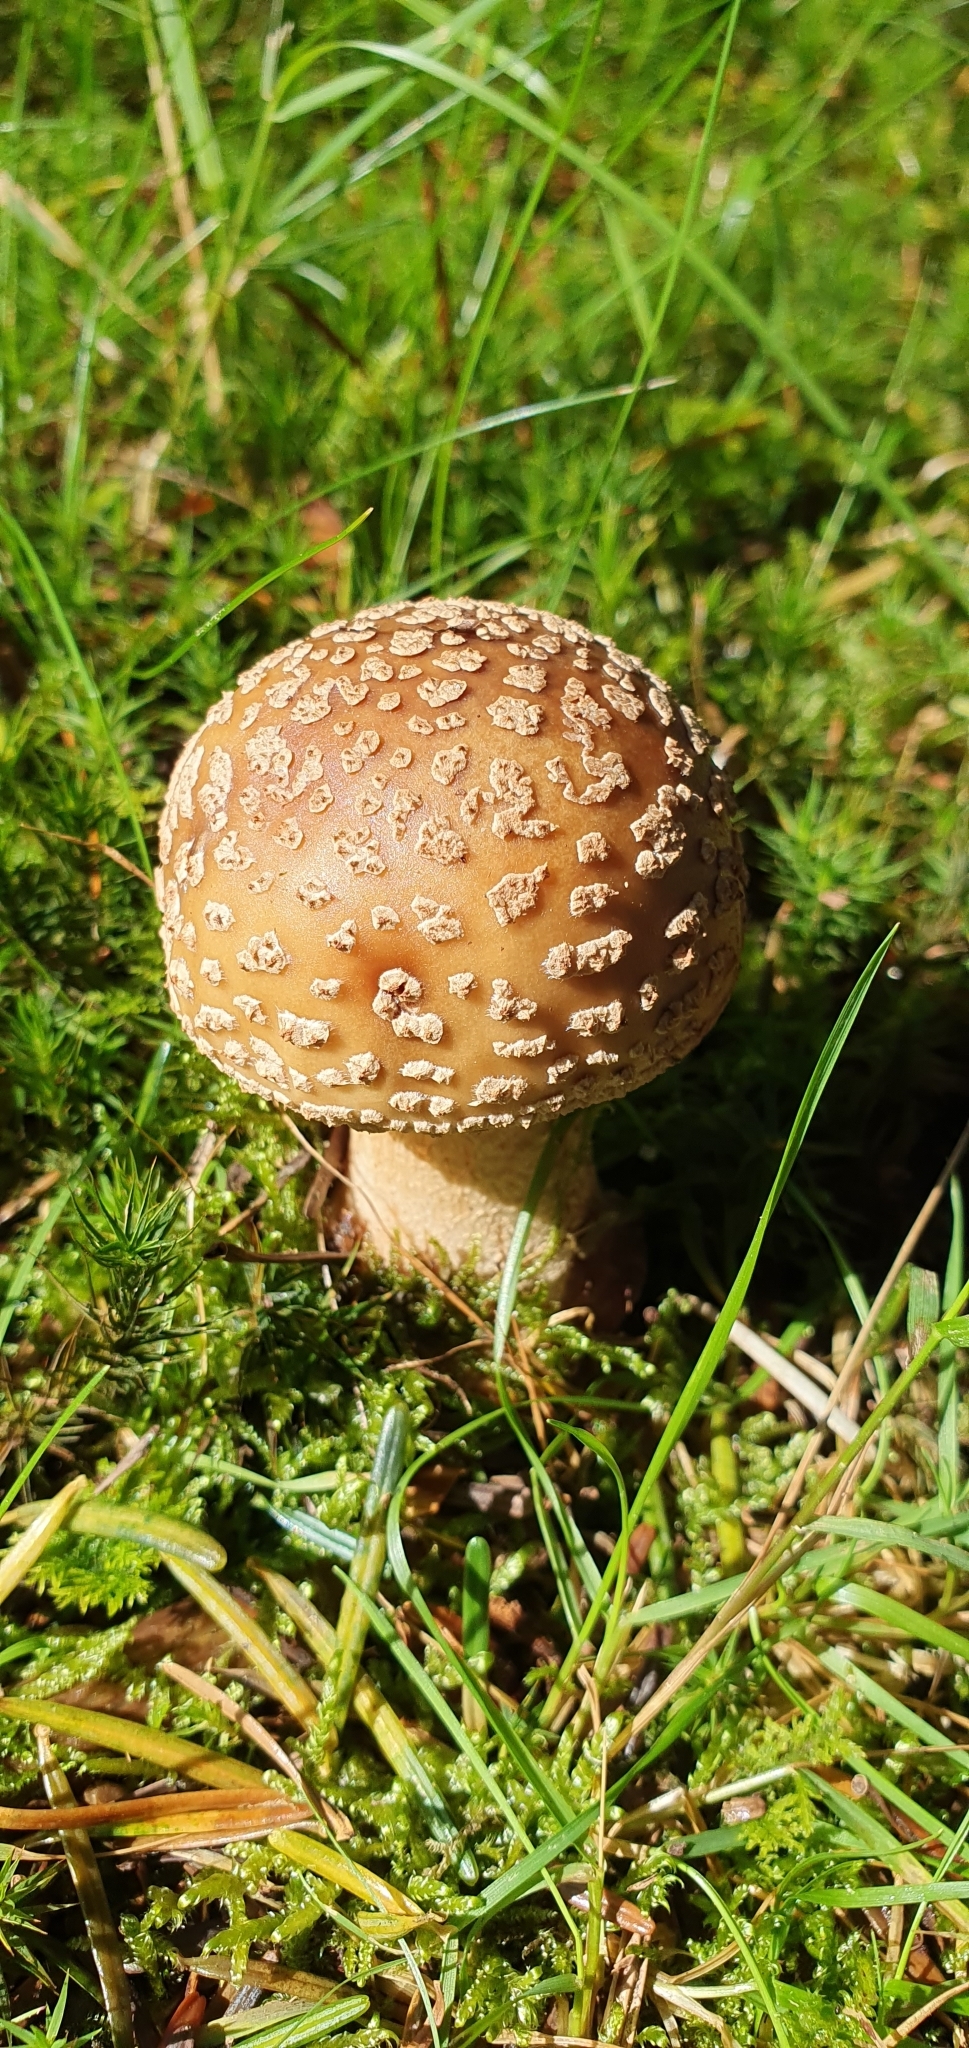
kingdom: Fungi
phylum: Basidiomycota
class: Agaricomycetes
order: Agaricales
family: Amanitaceae
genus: Amanita
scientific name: Amanita rubescens
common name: Blusher
